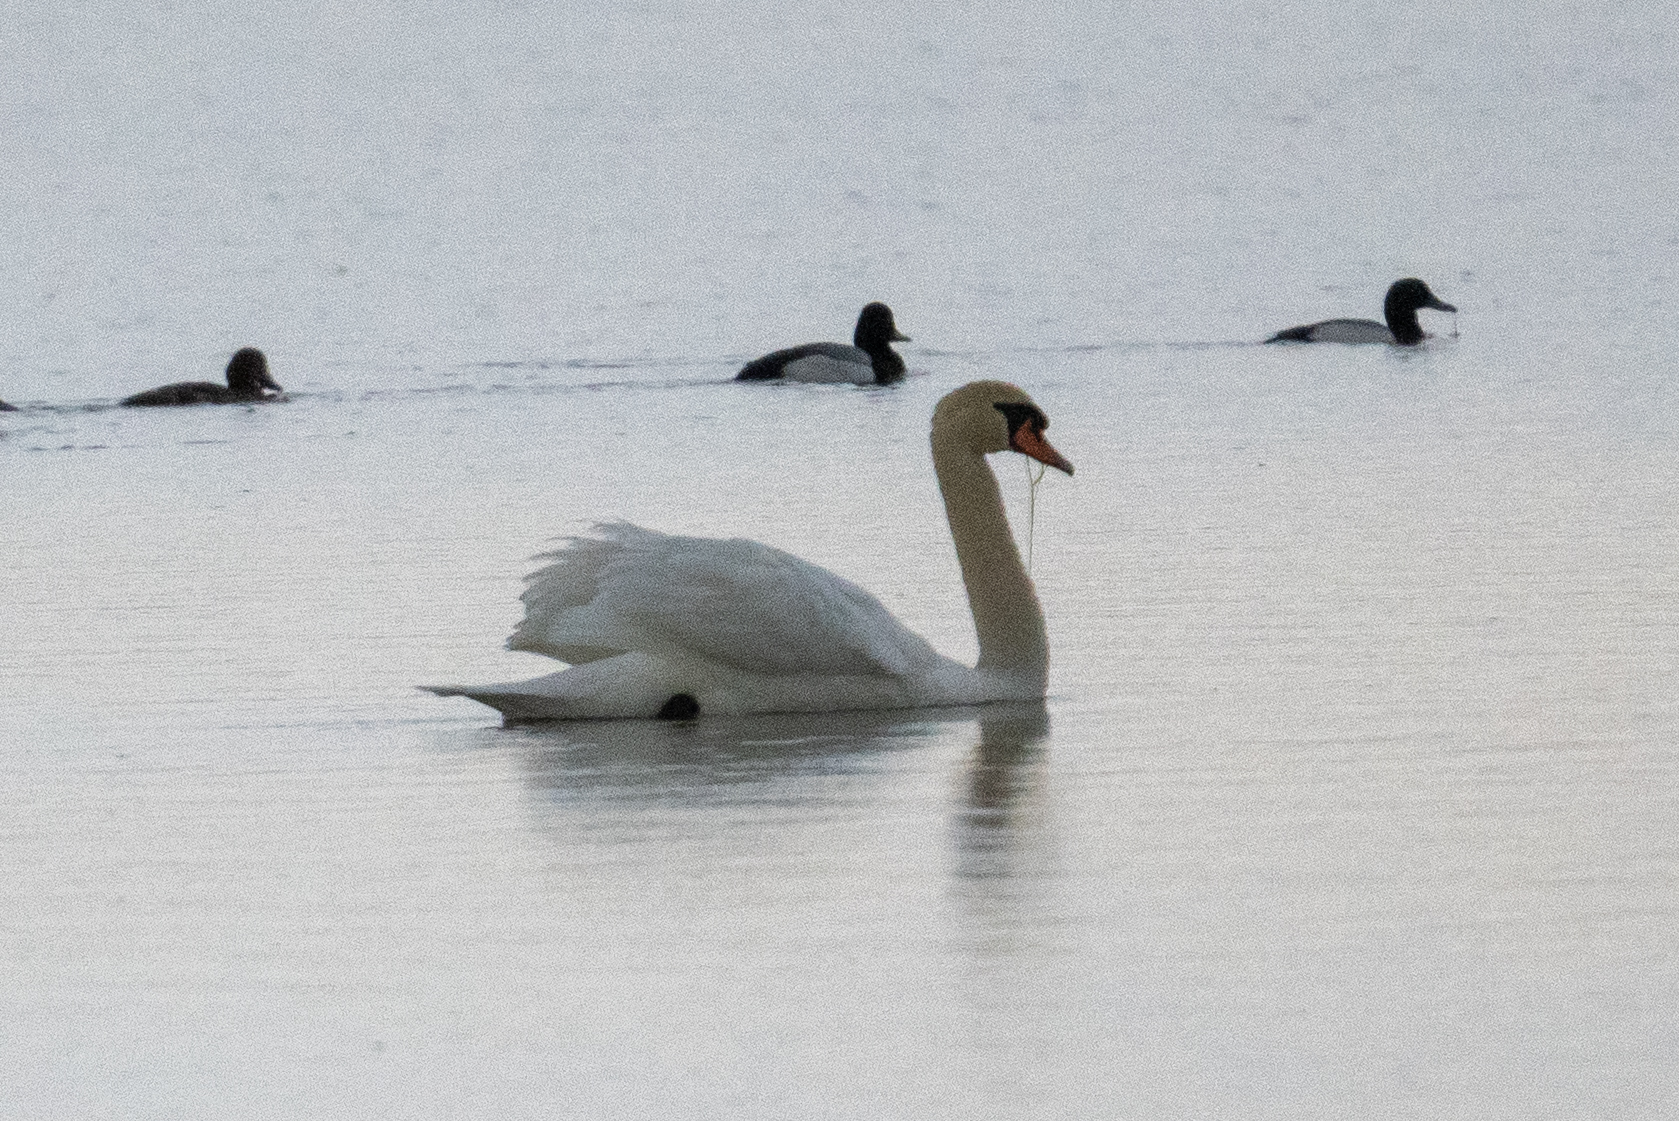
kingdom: Animalia
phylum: Chordata
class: Aves
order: Anseriformes
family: Anatidae
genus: Cygnus
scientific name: Cygnus olor
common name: Mute swan
